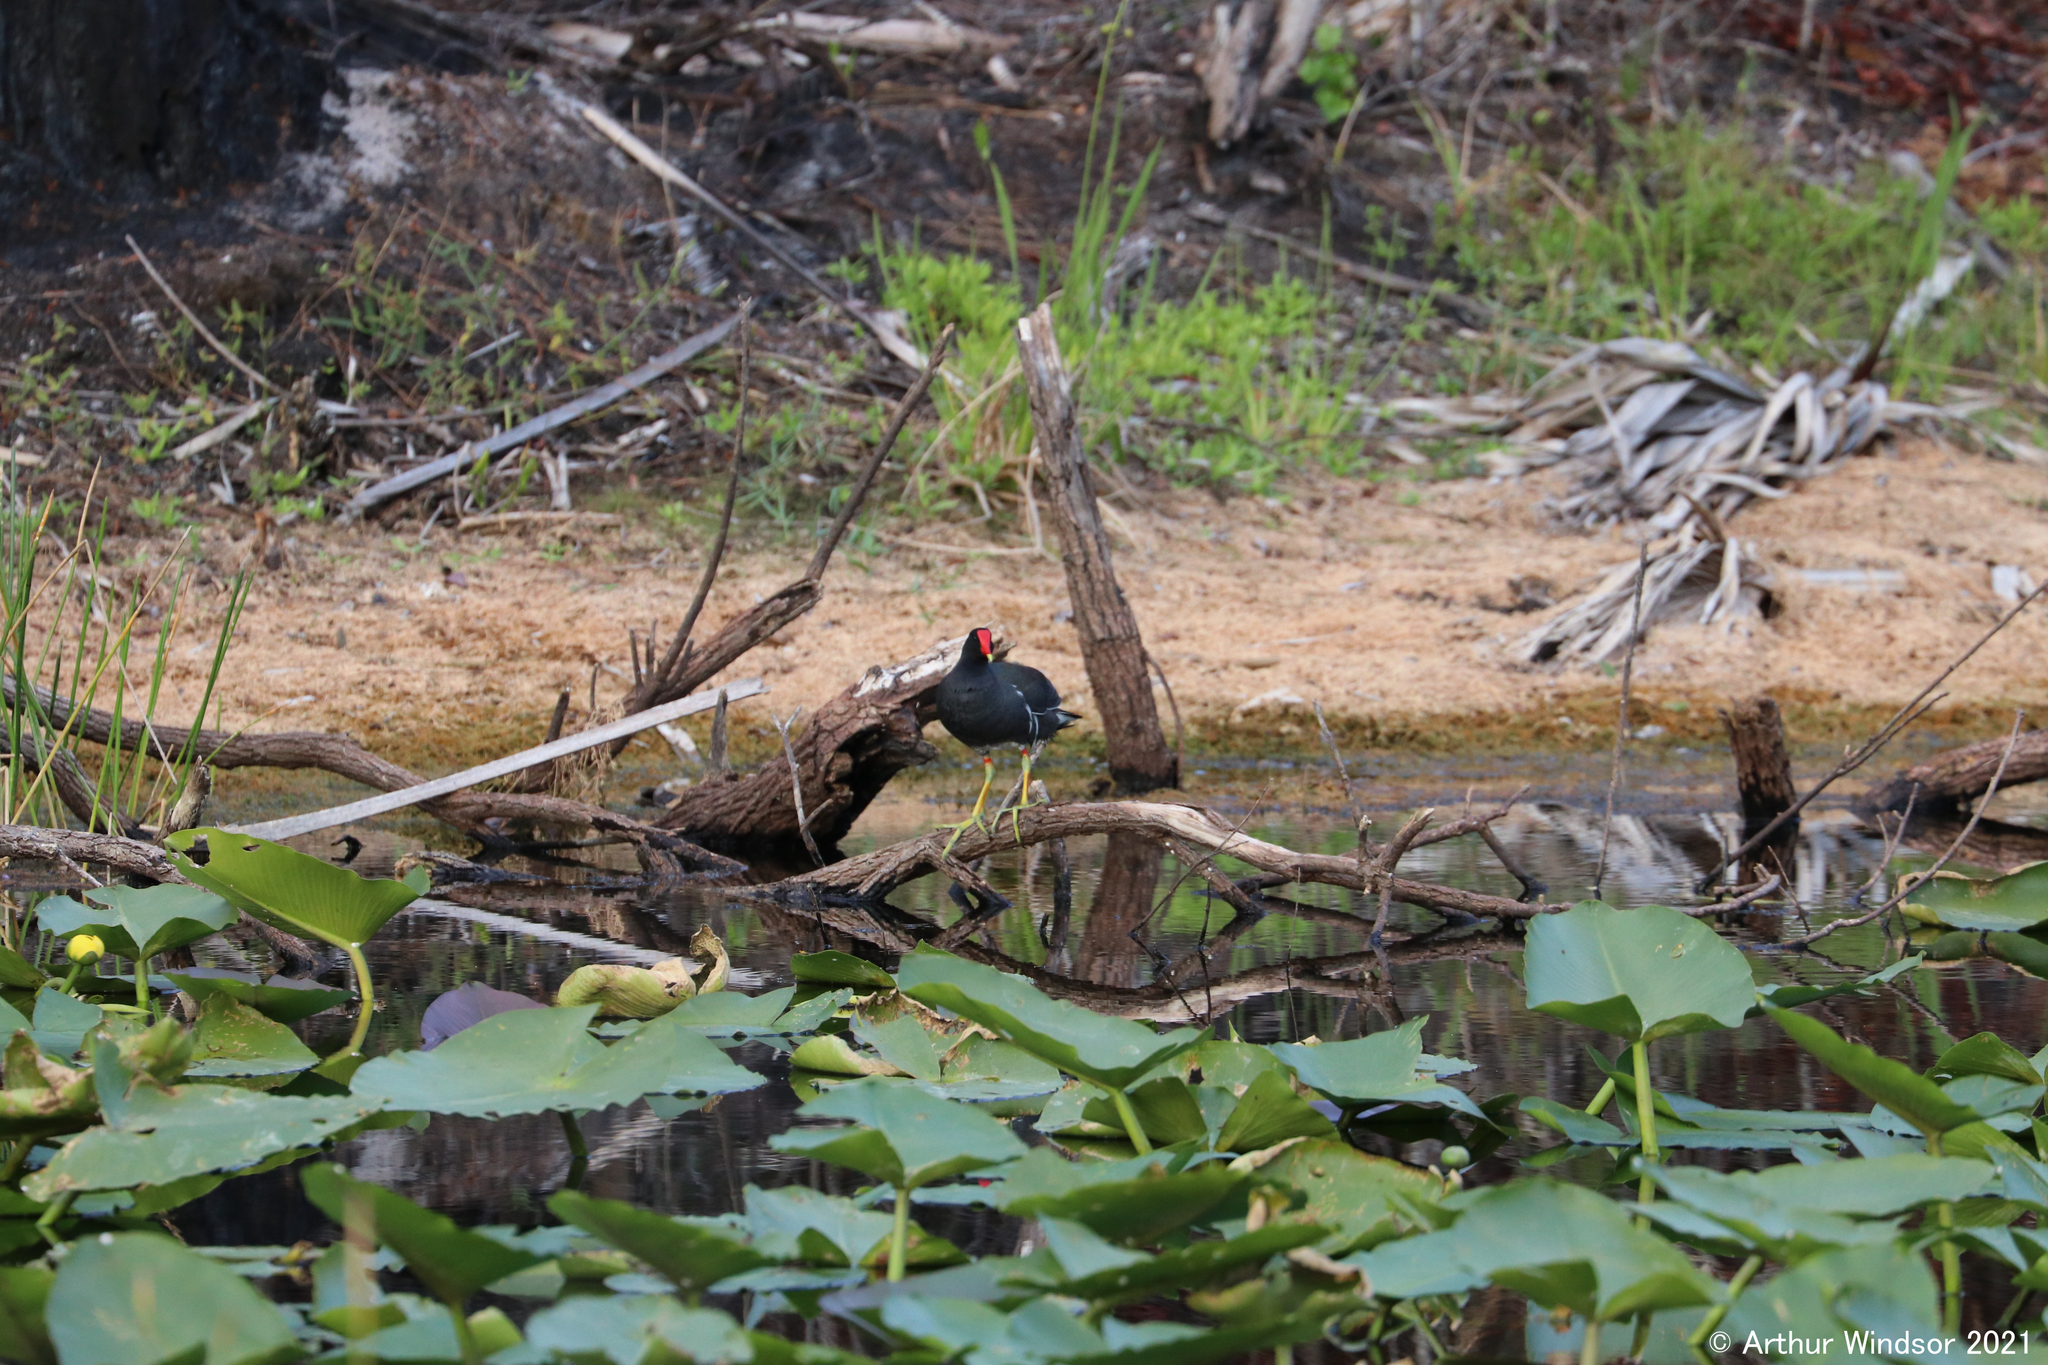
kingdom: Animalia
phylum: Chordata
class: Aves
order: Gruiformes
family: Rallidae
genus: Gallinula
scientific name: Gallinula chloropus
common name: Common moorhen
